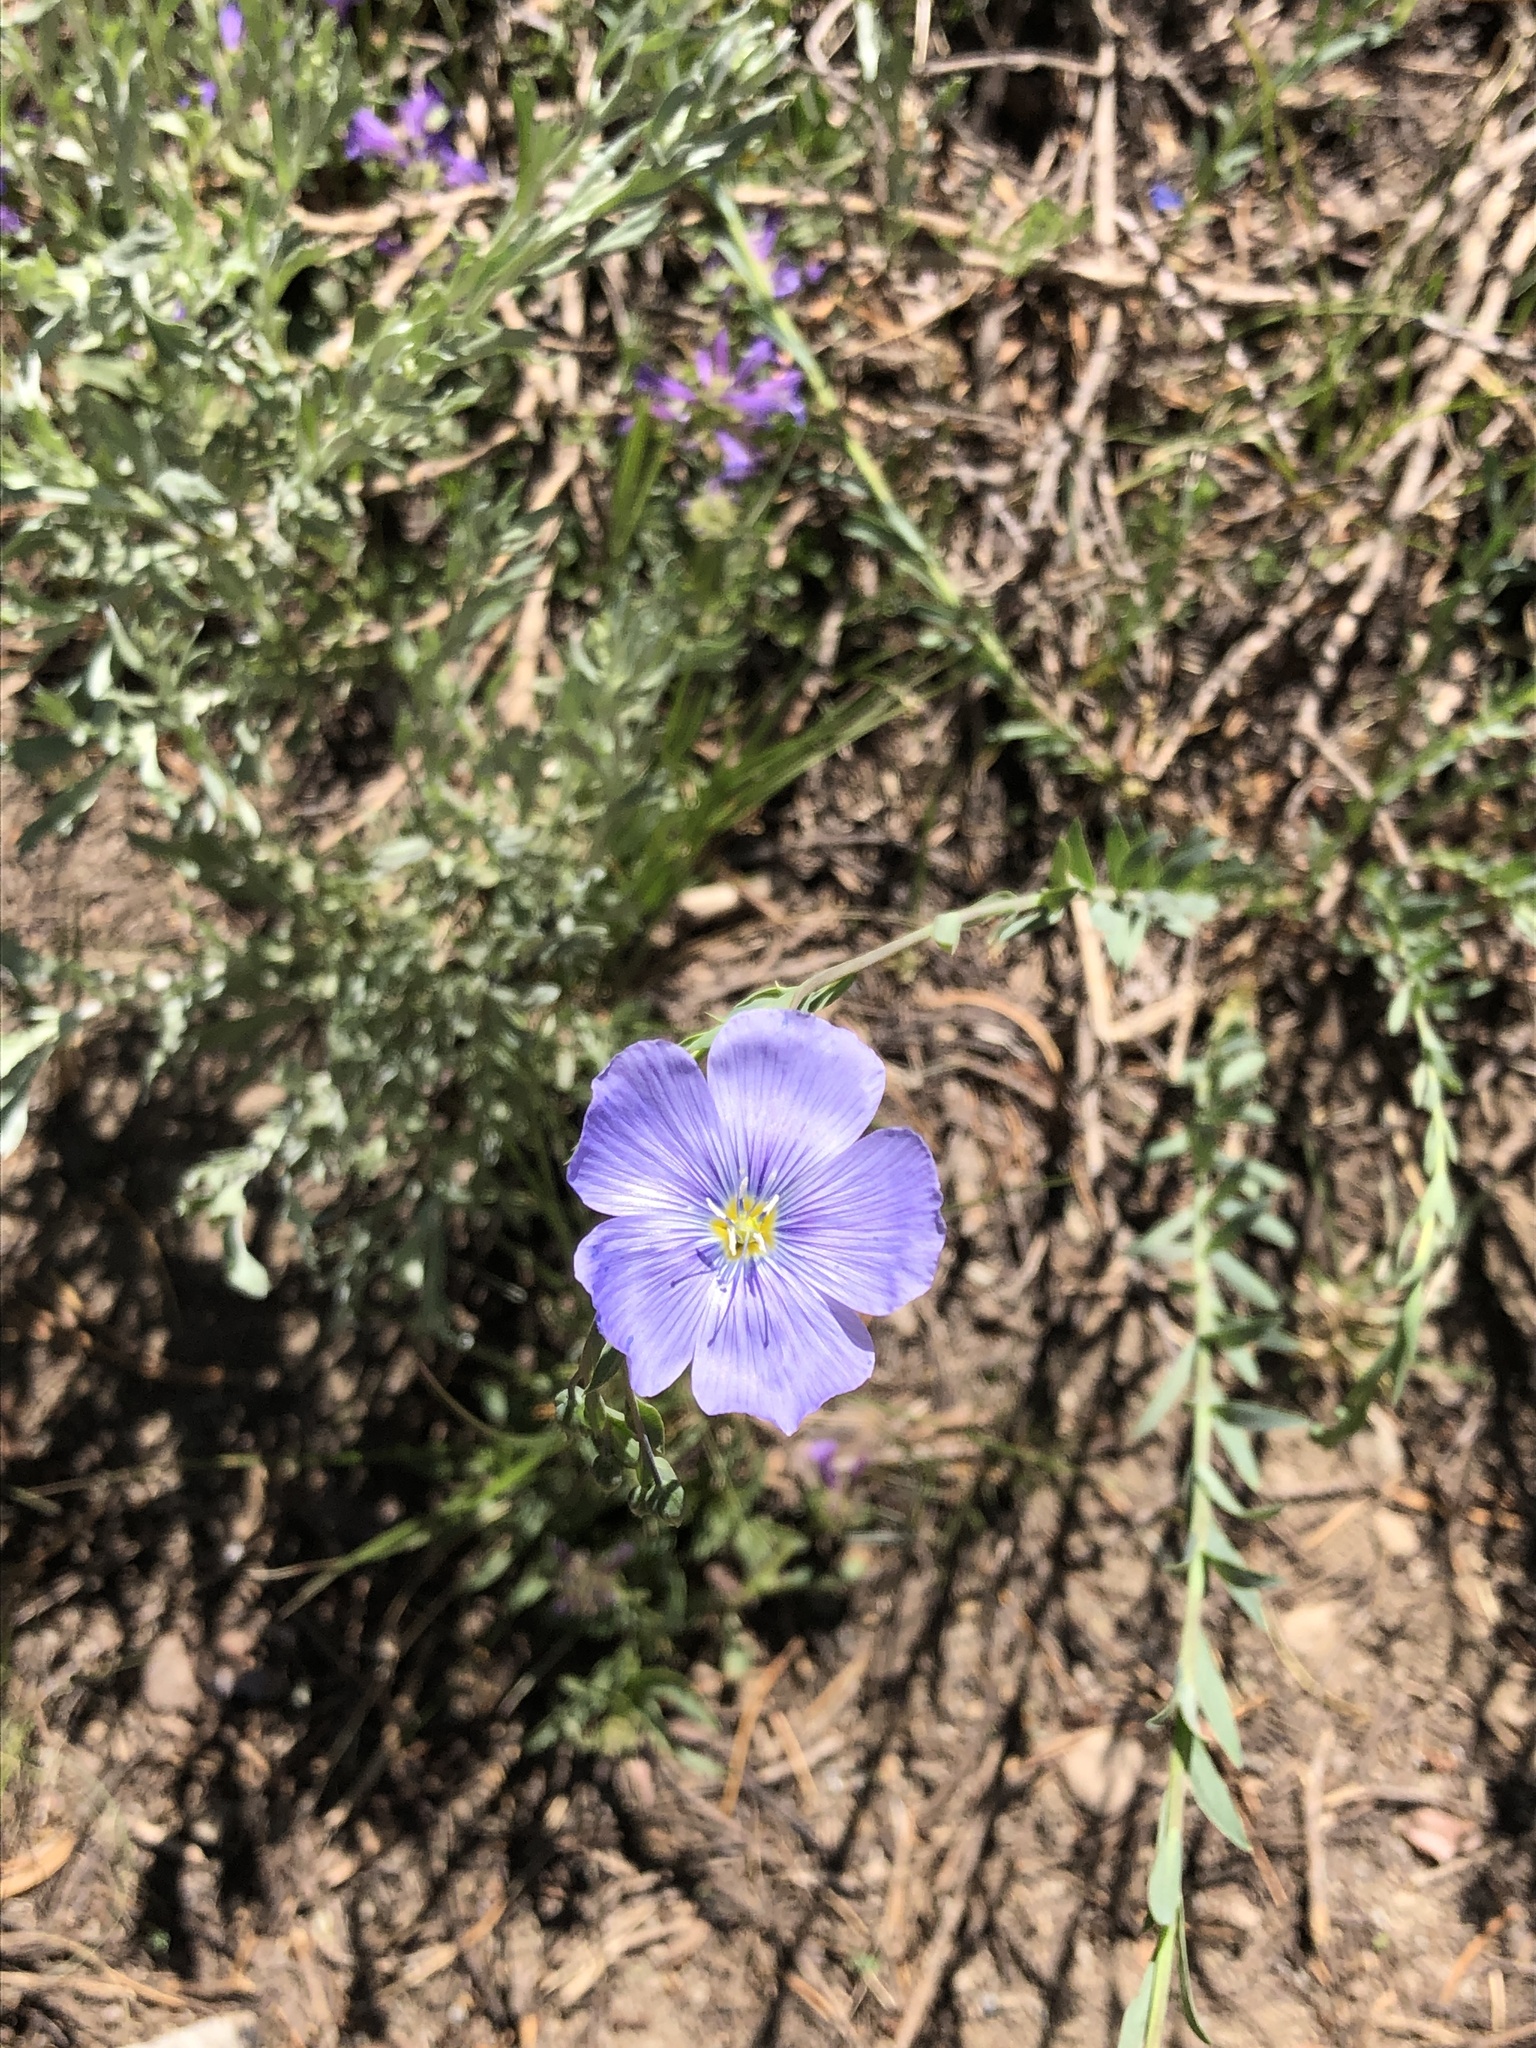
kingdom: Plantae
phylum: Tracheophyta
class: Magnoliopsida
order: Malpighiales
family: Linaceae
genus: Linum
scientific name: Linum lewisii
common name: Prairie flax
